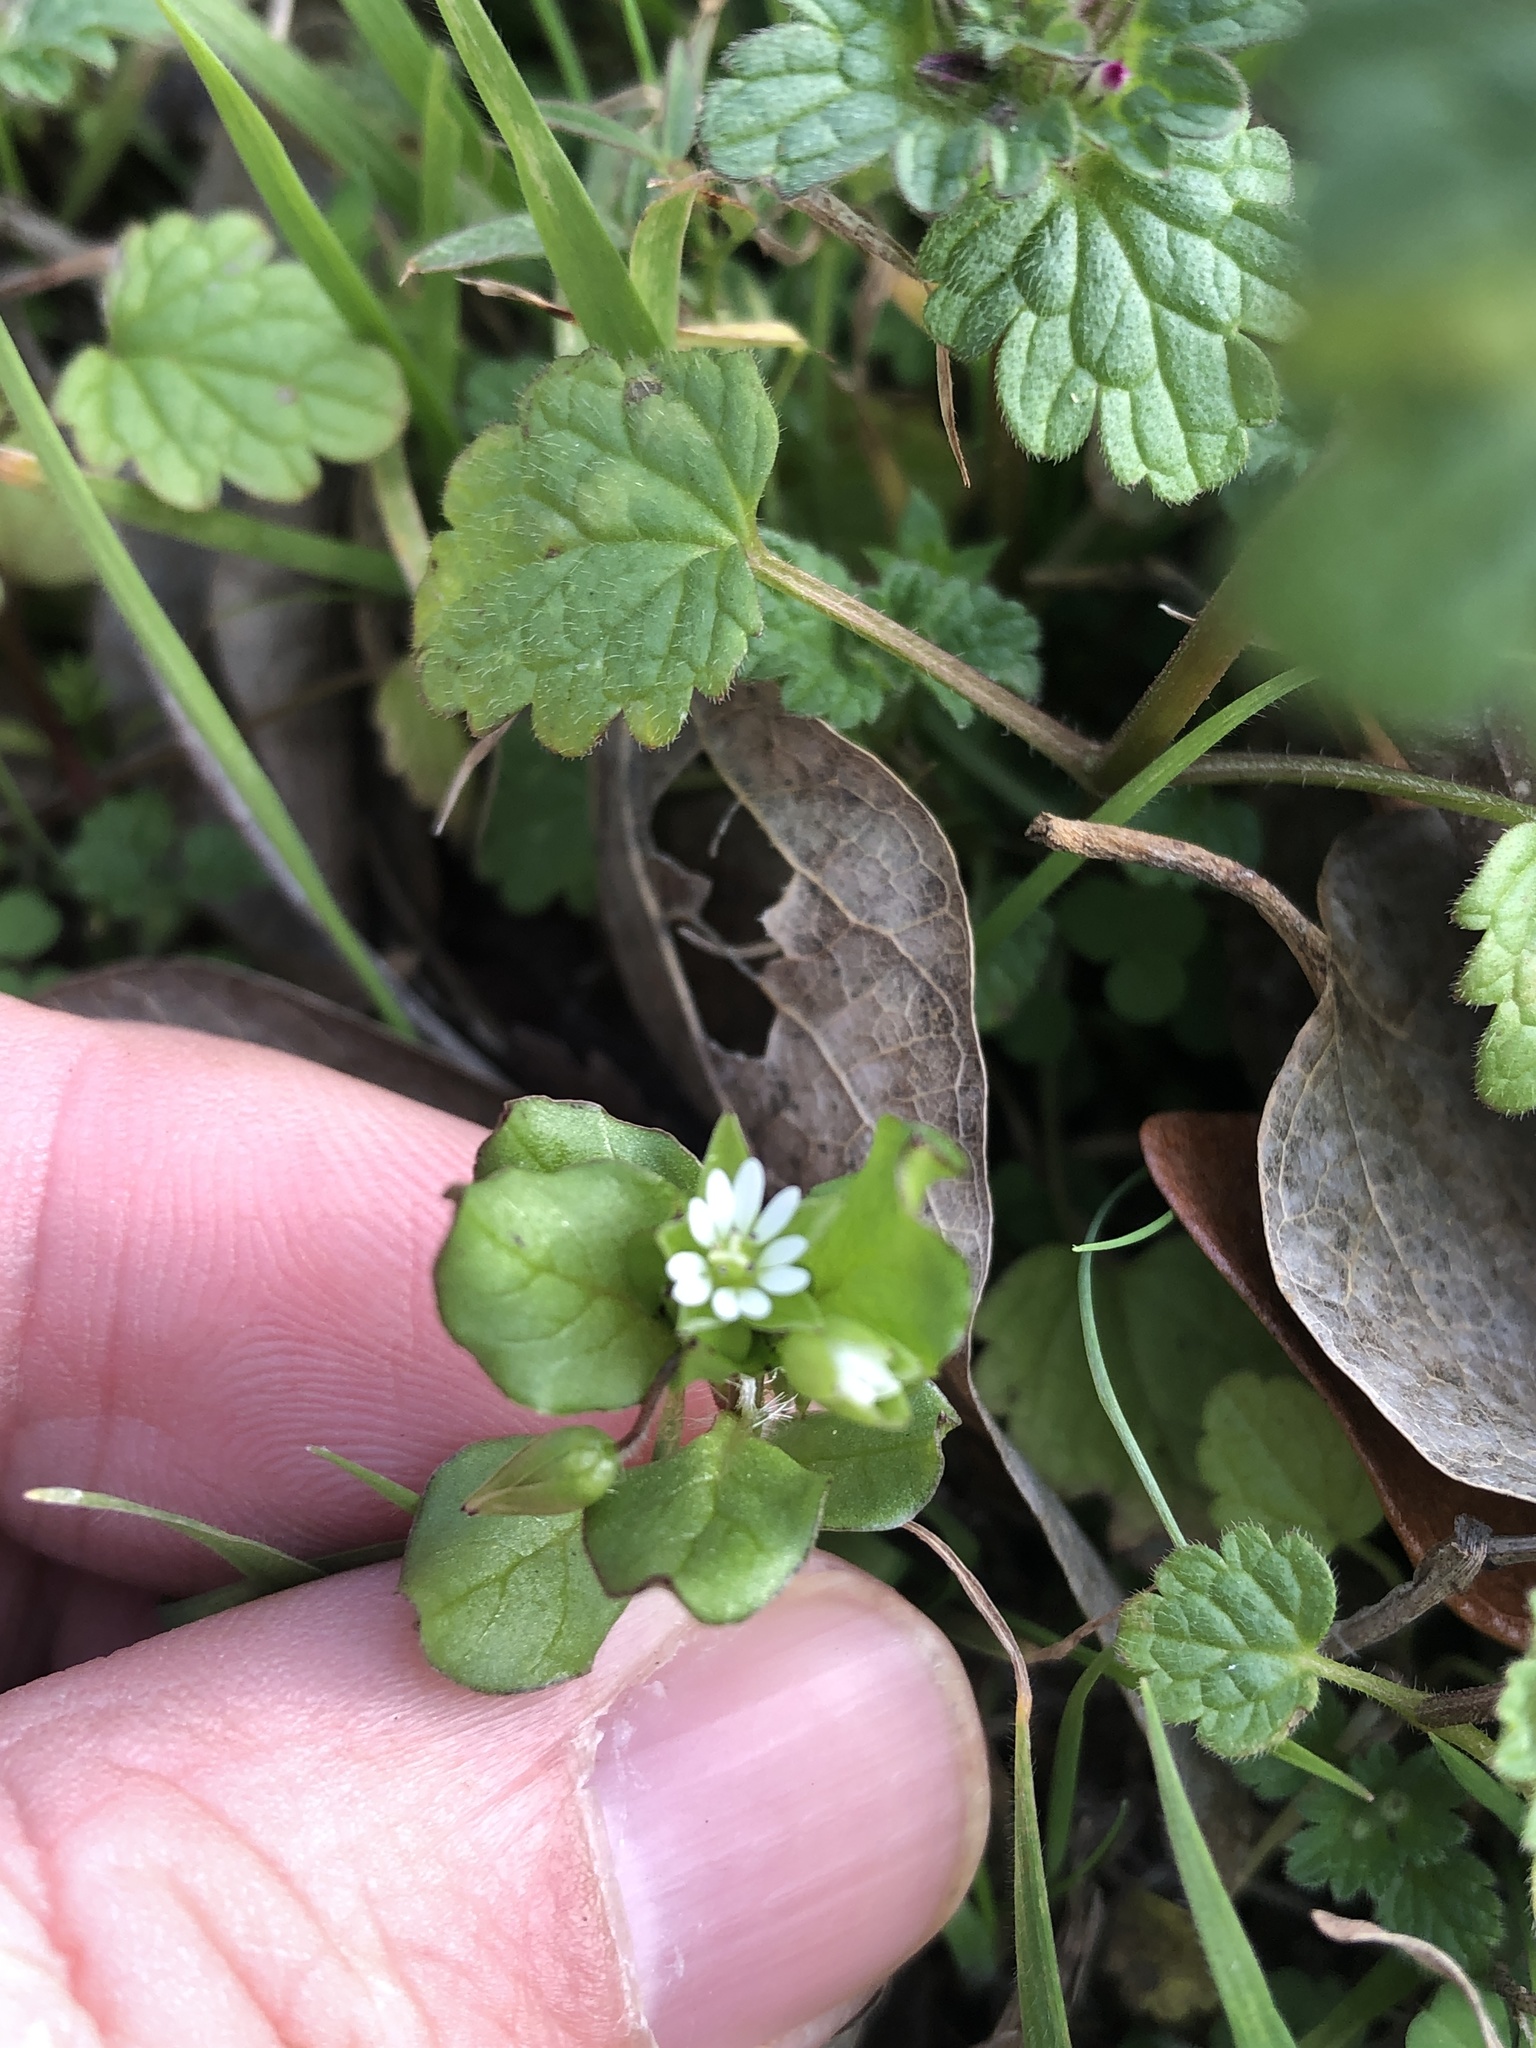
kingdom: Plantae
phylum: Tracheophyta
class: Magnoliopsida
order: Caryophyllales
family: Caryophyllaceae
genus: Stellaria
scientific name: Stellaria media
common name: Common chickweed
